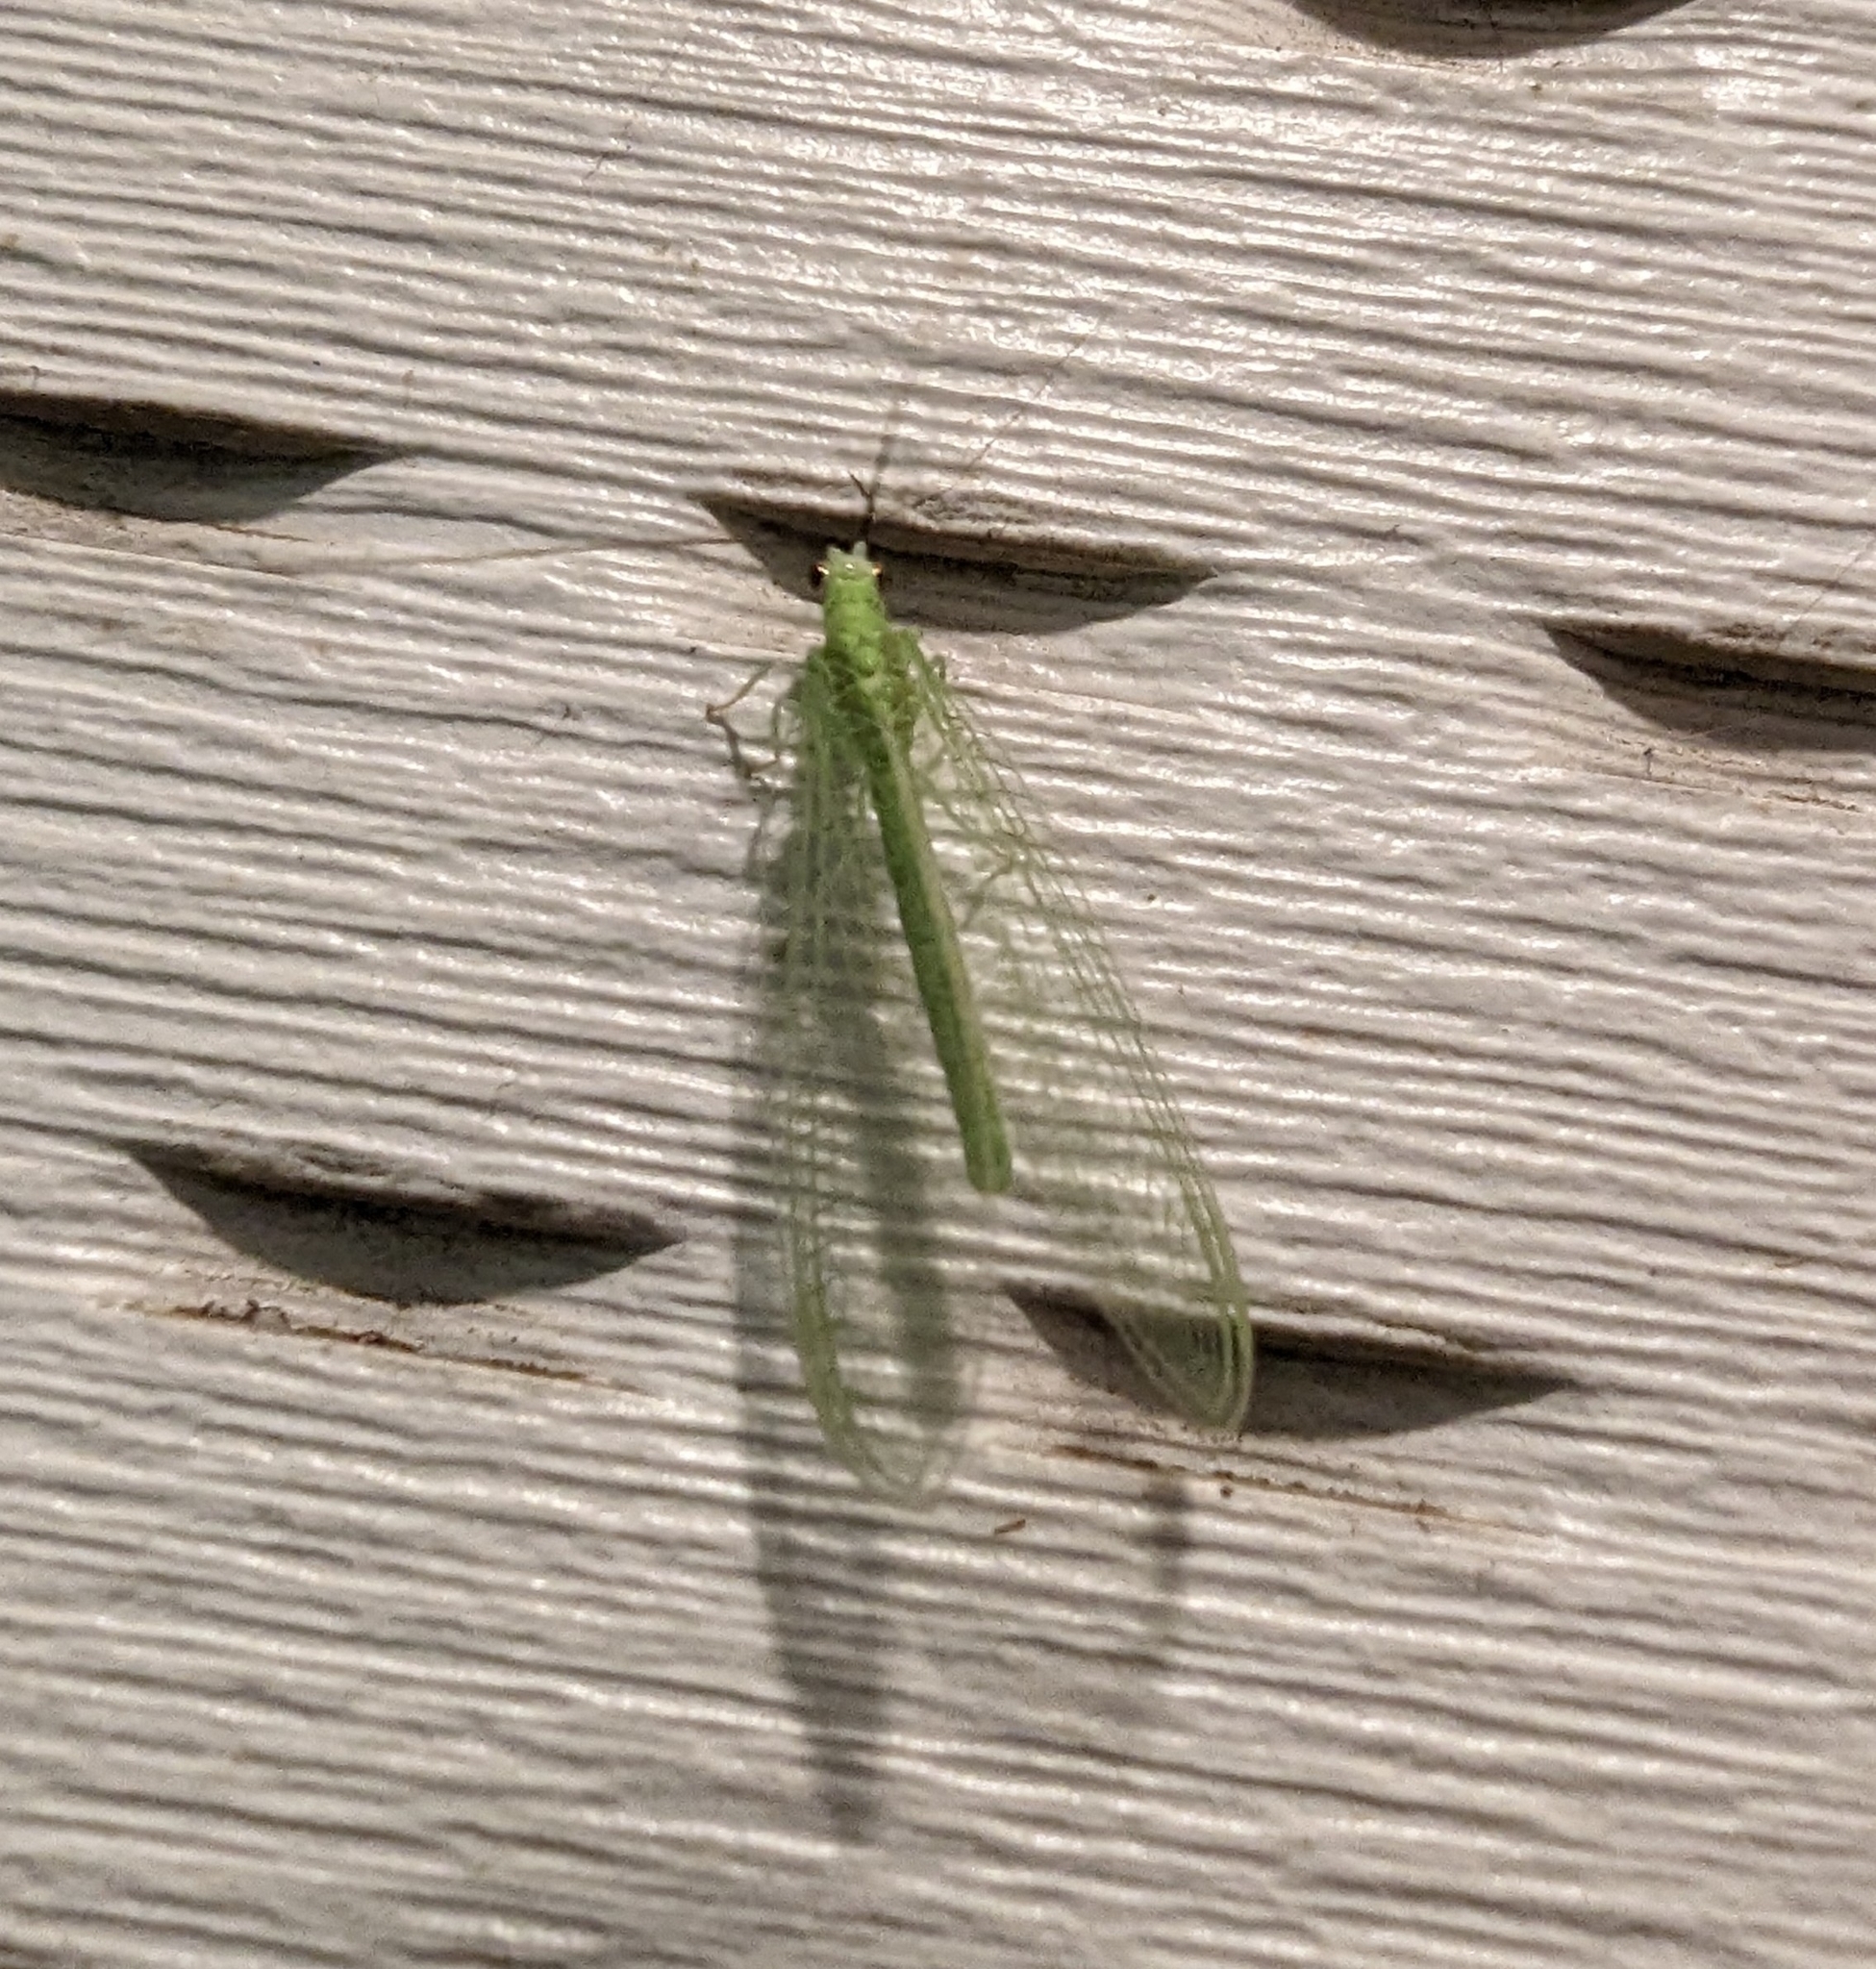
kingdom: Animalia
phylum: Arthropoda
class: Insecta
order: Neuroptera
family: Chrysopidae
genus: Chrysopa
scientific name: Chrysopa nigricornis
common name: Black-horned green lacewing
